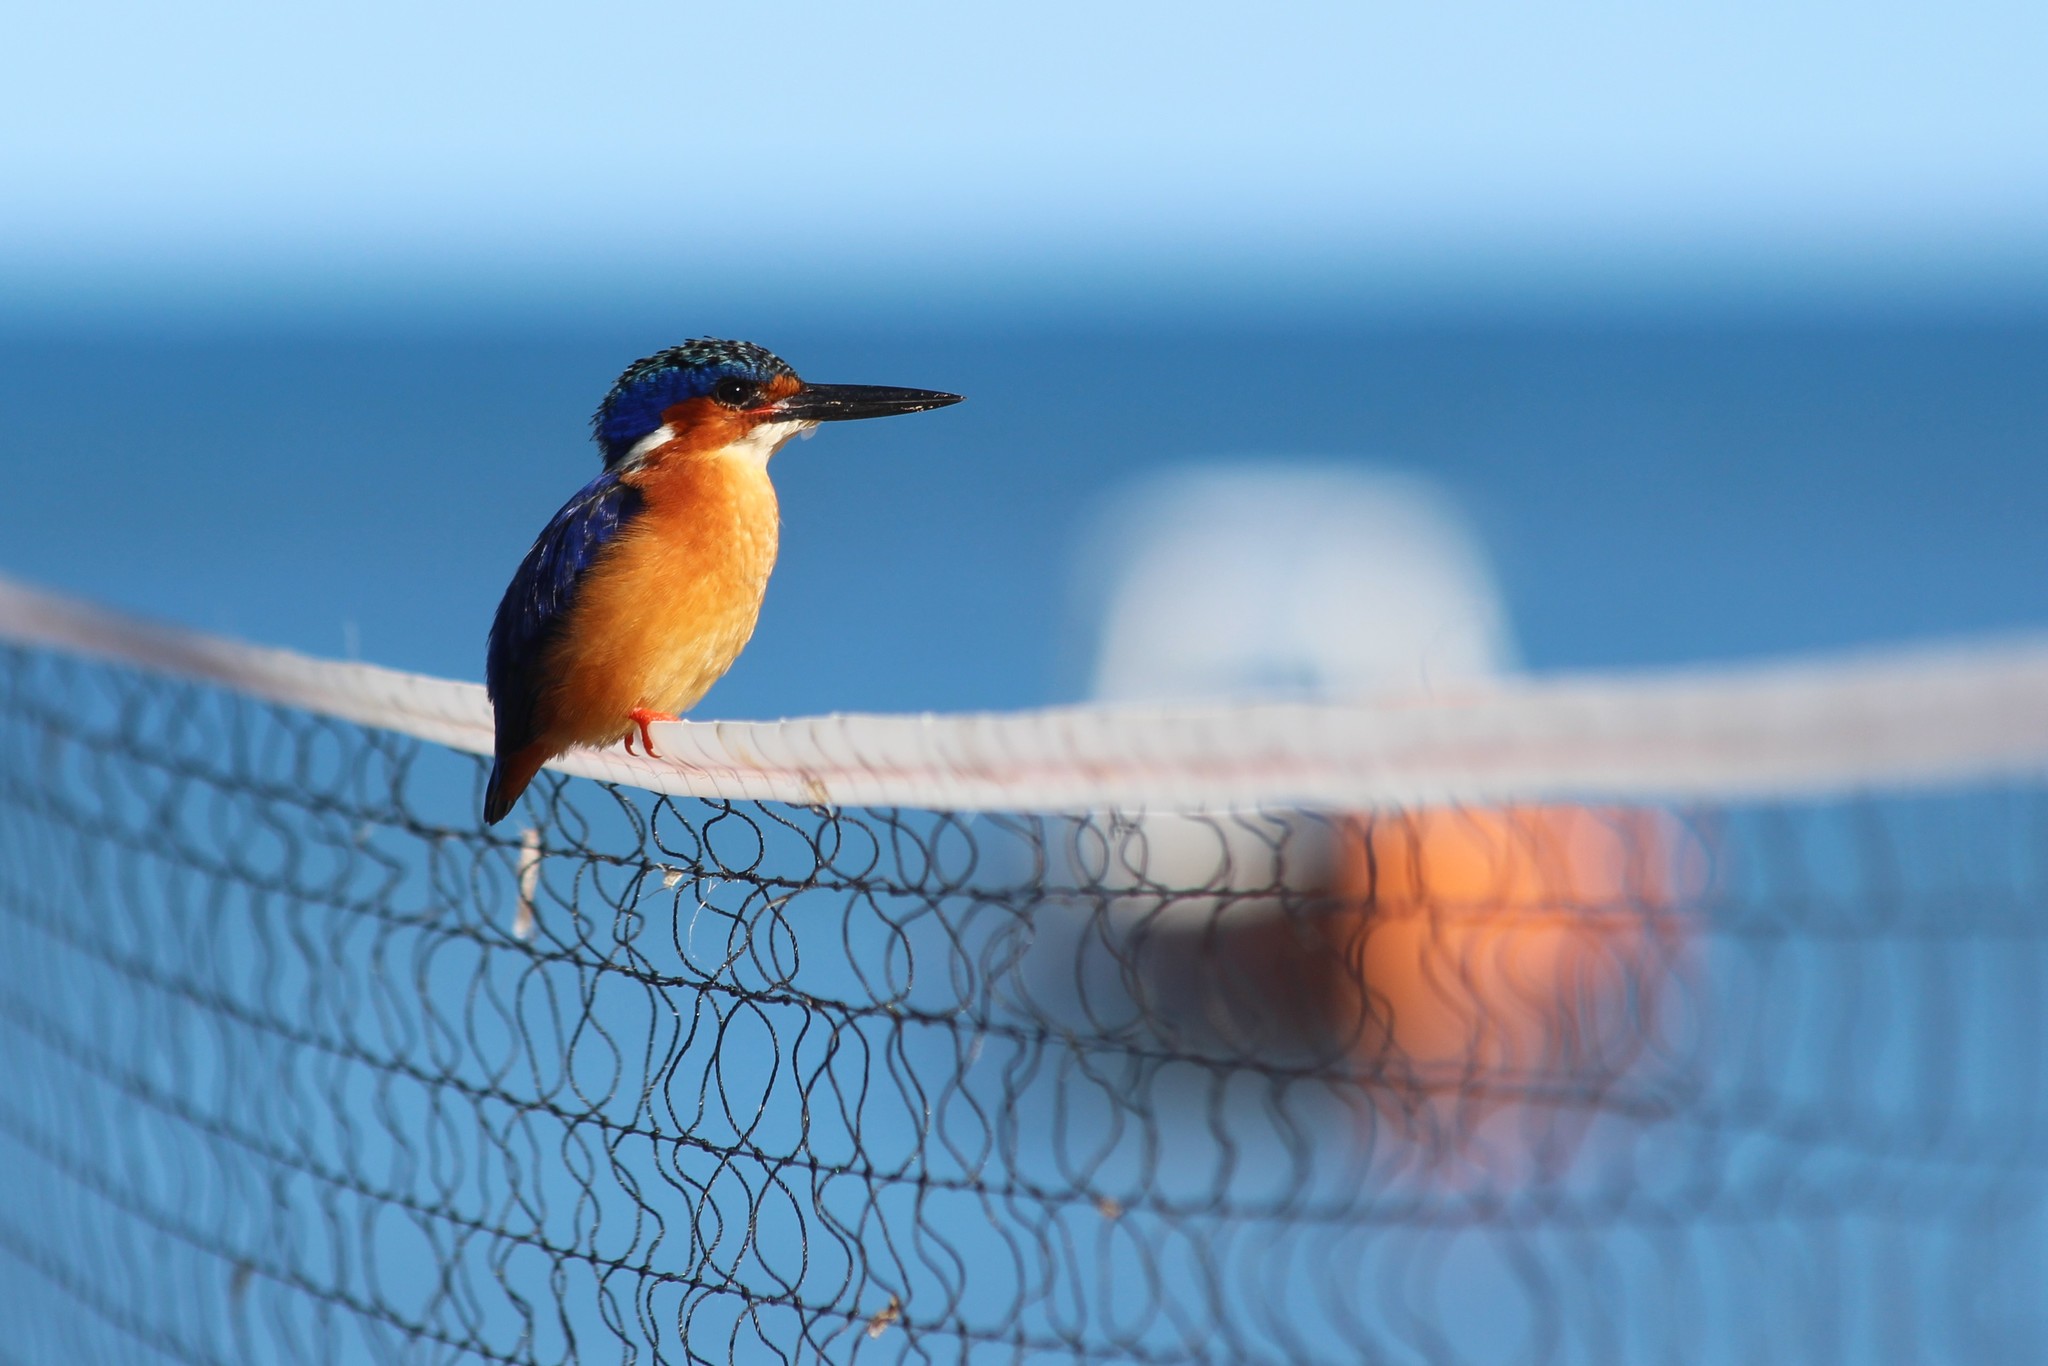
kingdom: Animalia
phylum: Chordata
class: Aves
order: Coraciiformes
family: Alcedinidae
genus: Corythornis
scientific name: Corythornis vintsioides
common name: Malagasy kingfisher
